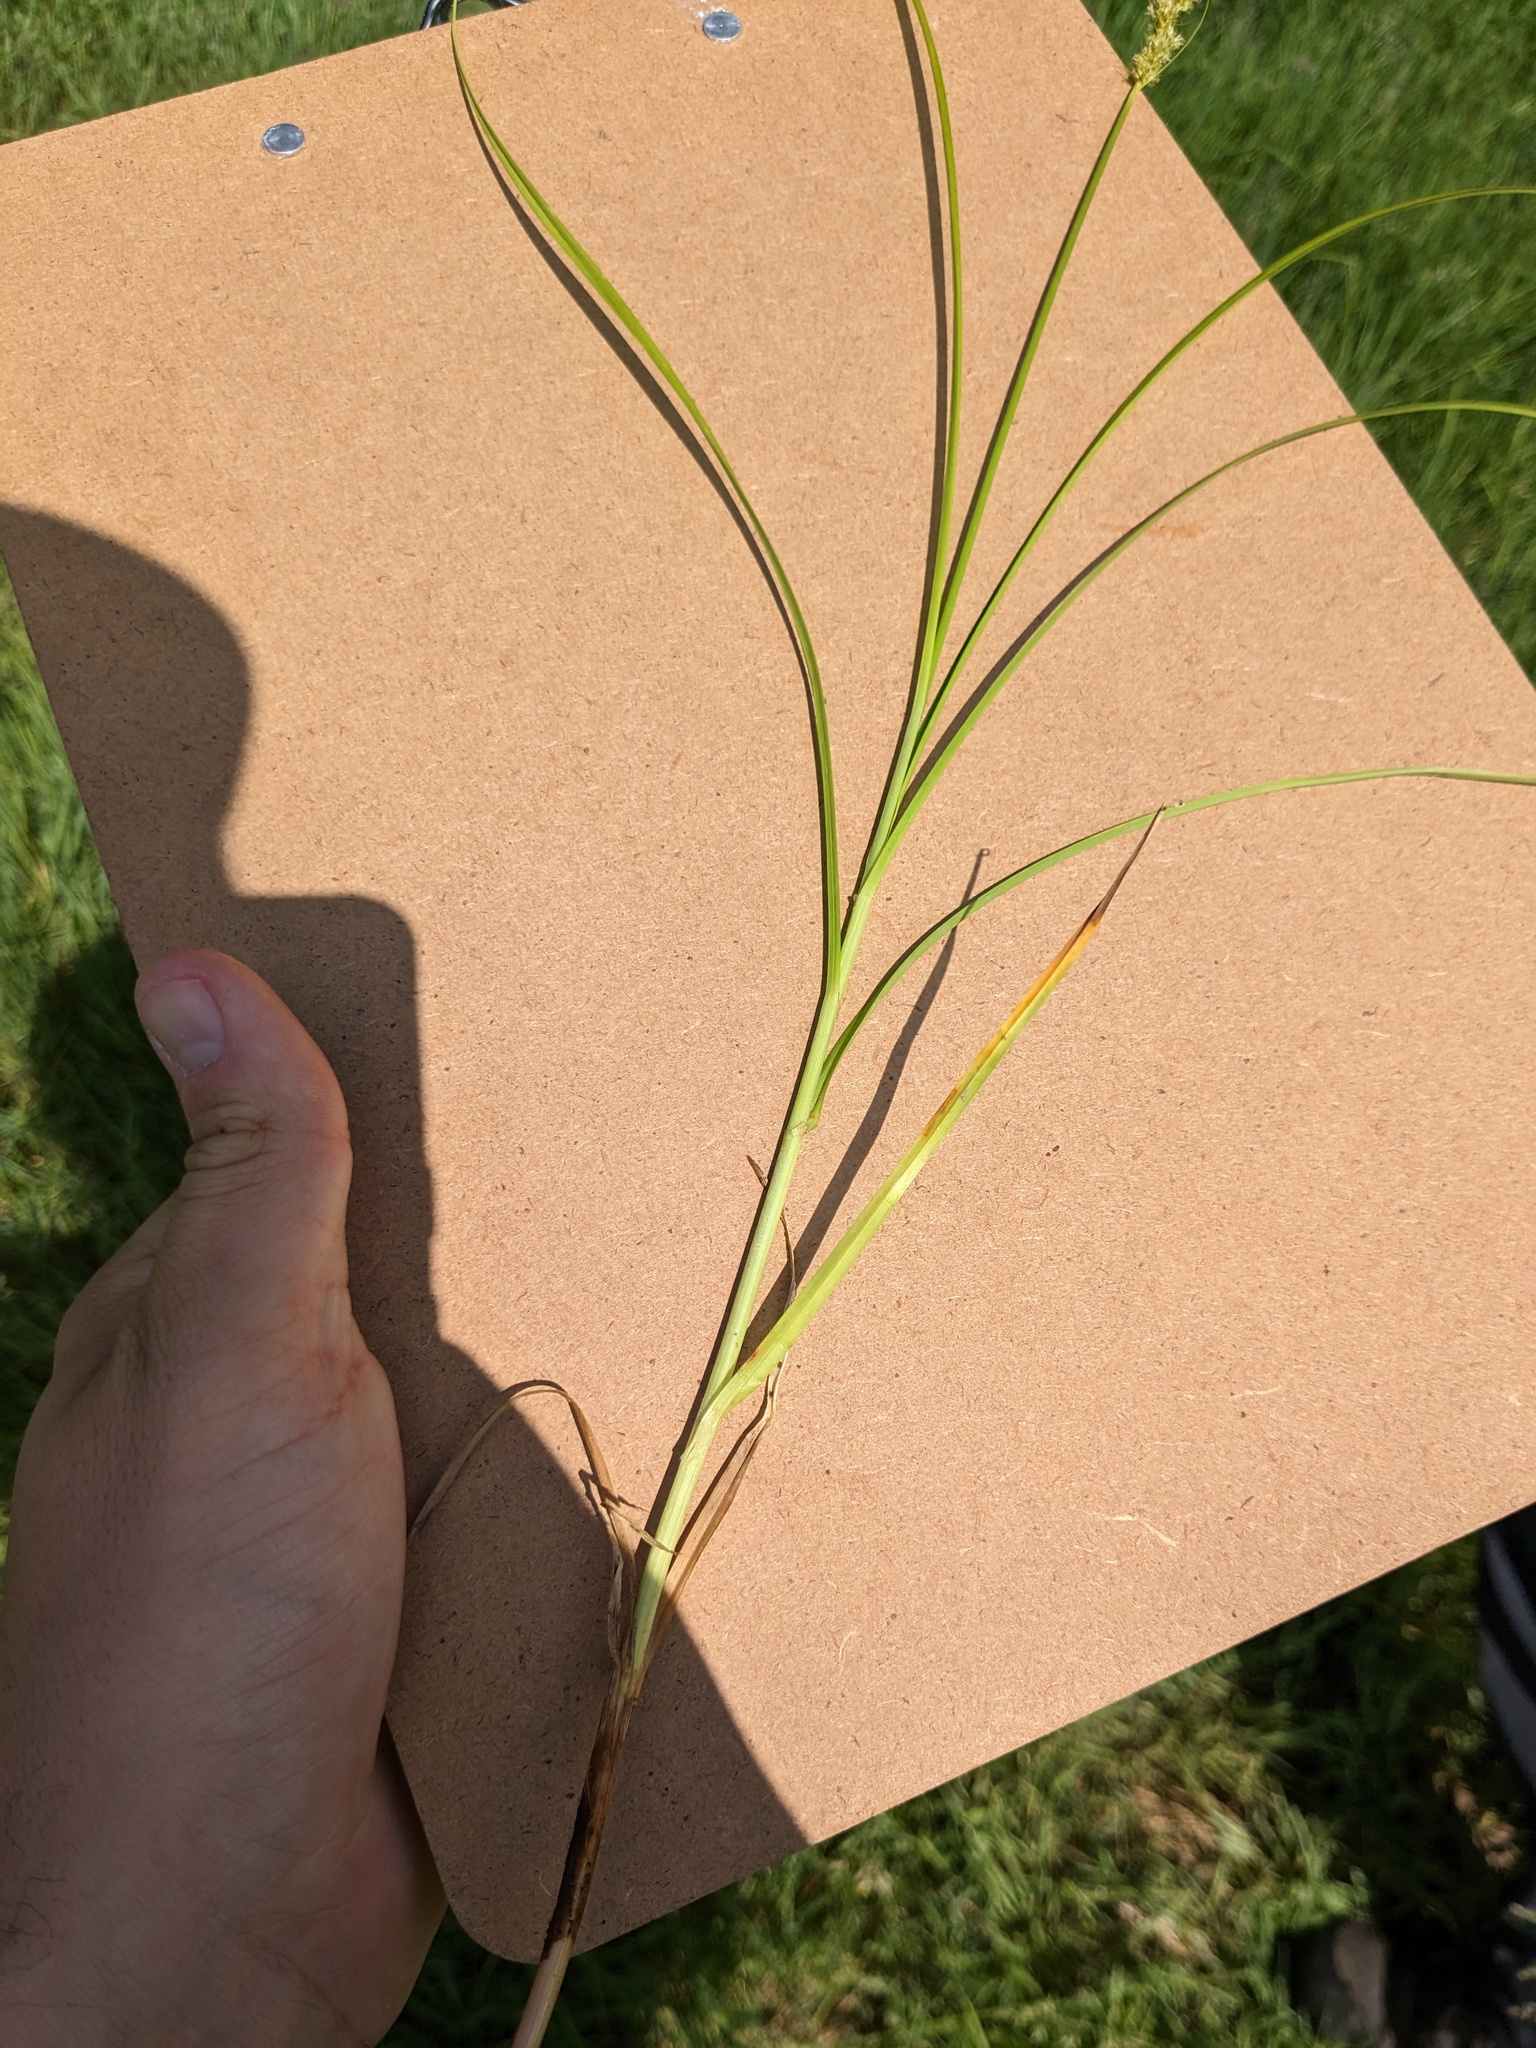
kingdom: Plantae
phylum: Tracheophyta
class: Liliopsida
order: Poales
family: Cyperaceae
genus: Carex
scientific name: Carex vulpinoidea
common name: American fox-sedge
